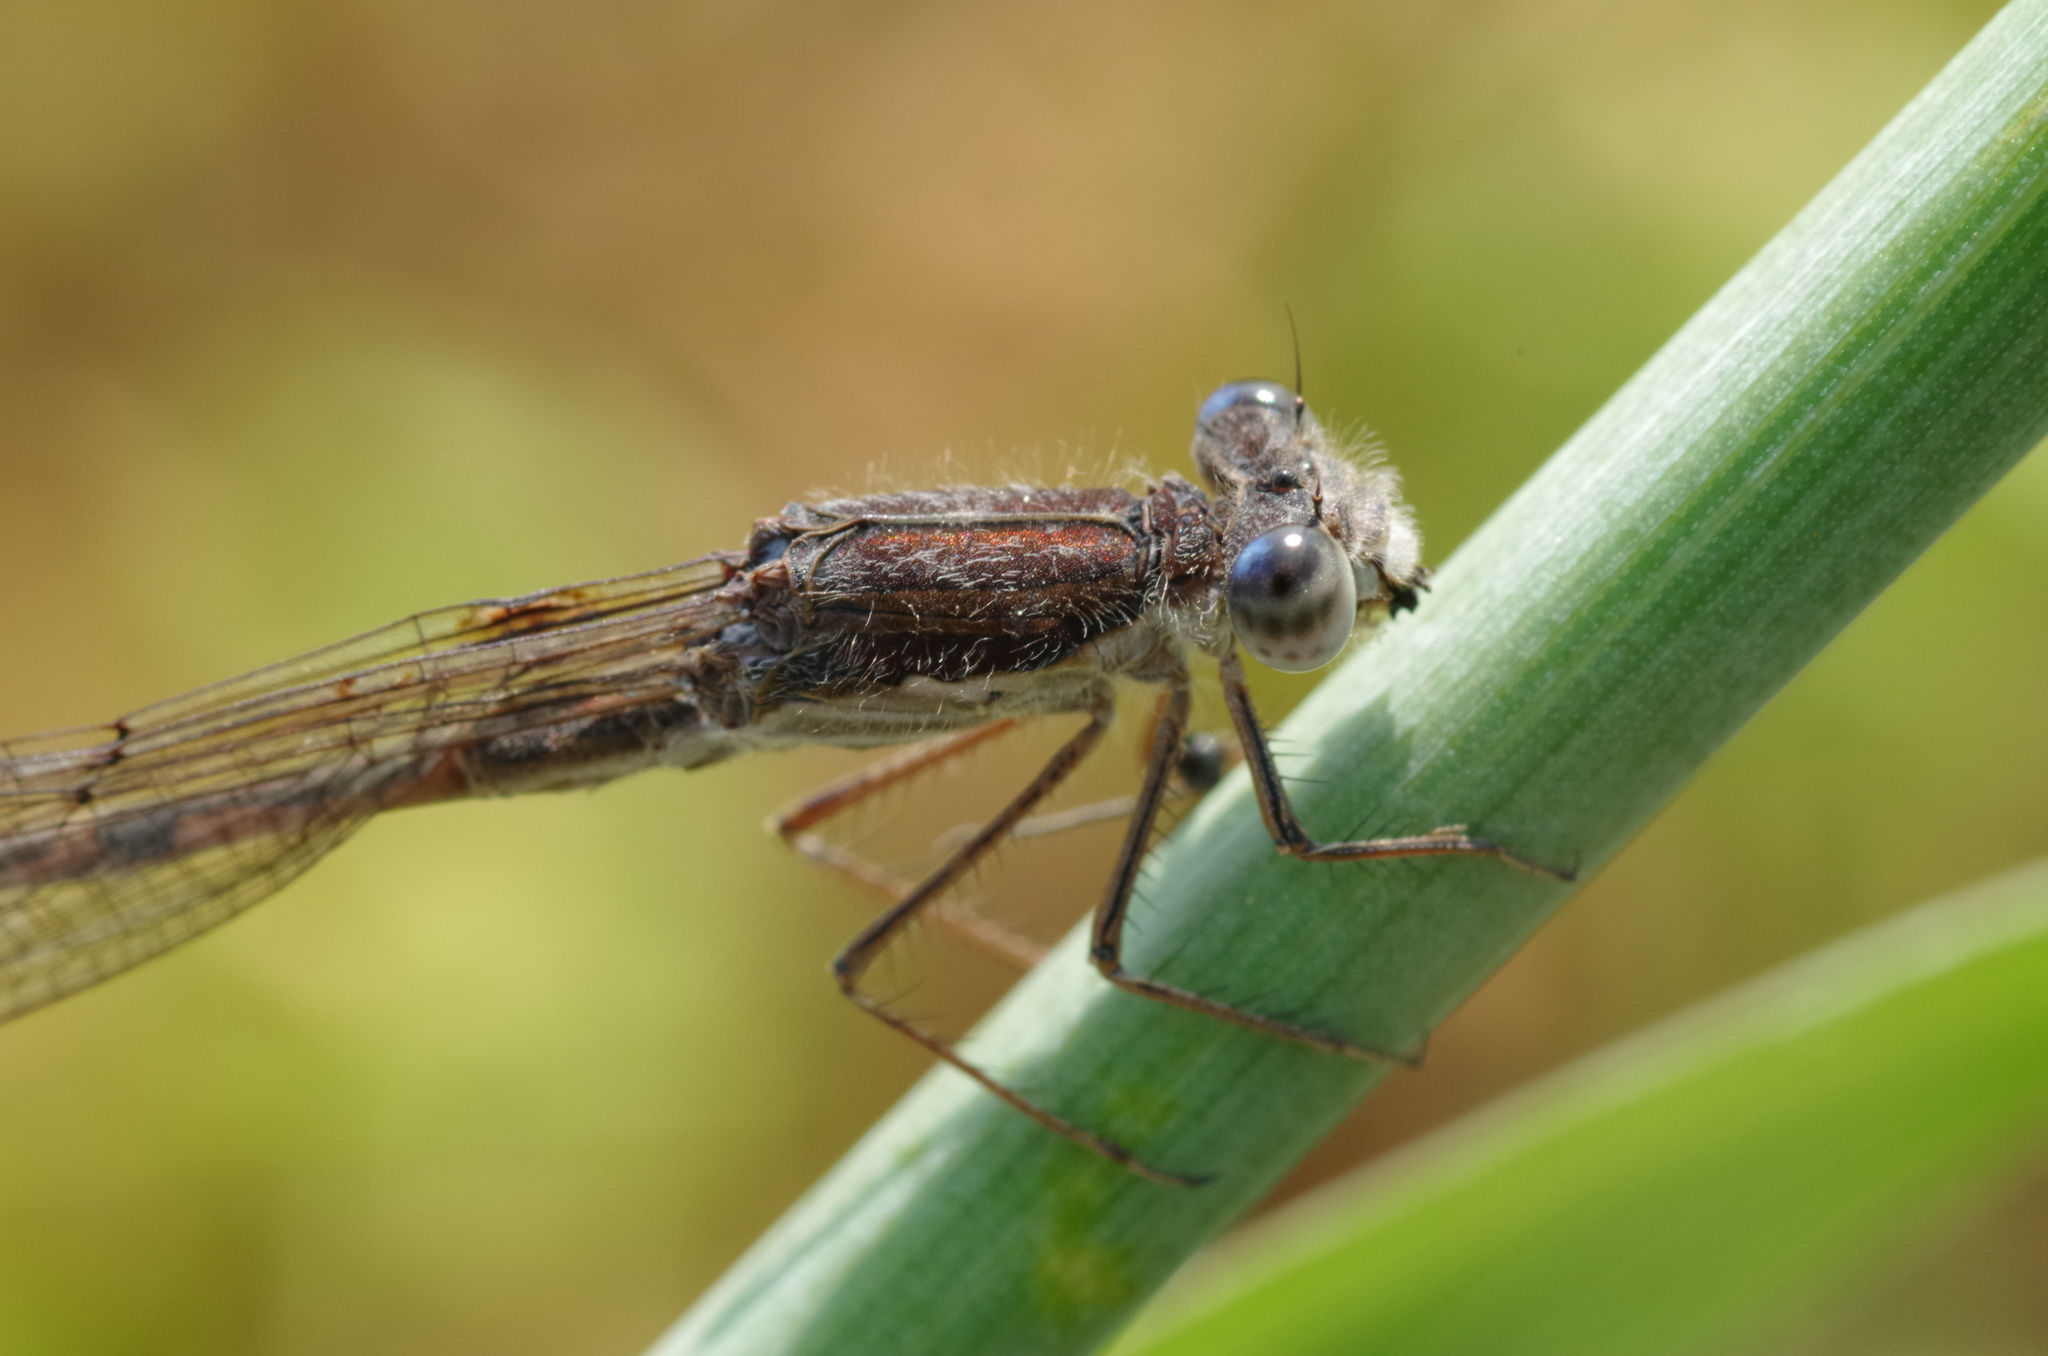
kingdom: Animalia
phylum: Arthropoda
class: Insecta
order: Odonata
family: Lestidae
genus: Sympecma
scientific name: Sympecma fusca
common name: Common winter damsel
